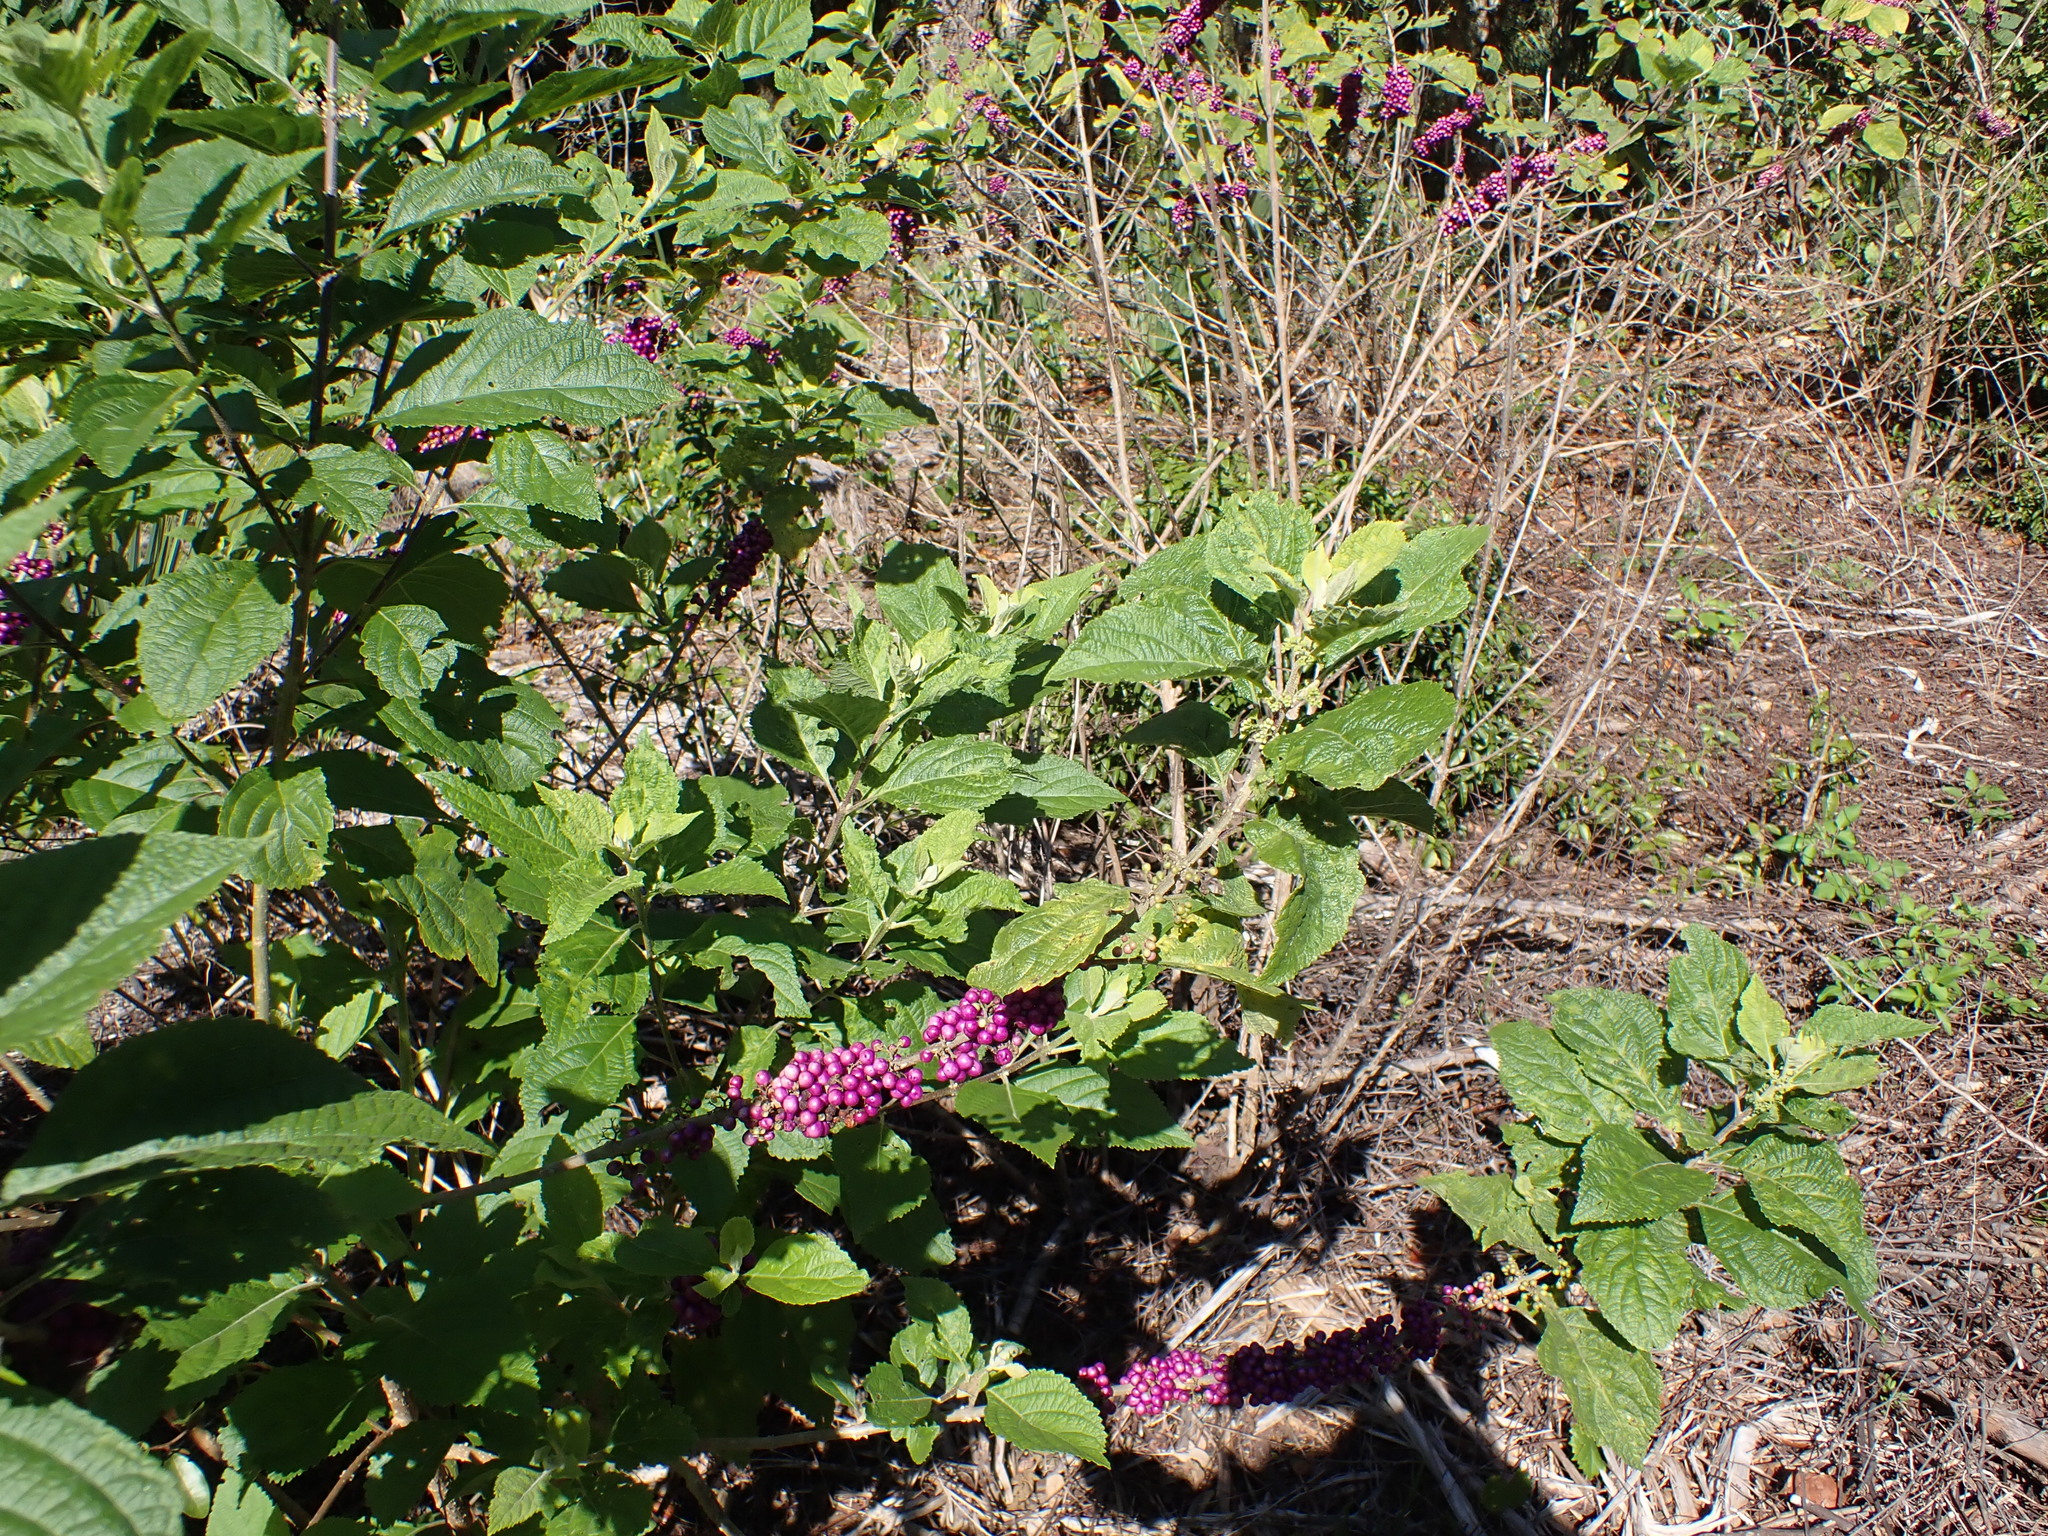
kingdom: Plantae
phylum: Tracheophyta
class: Magnoliopsida
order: Lamiales
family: Lamiaceae
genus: Callicarpa
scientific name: Callicarpa americana
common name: American beautyberry
